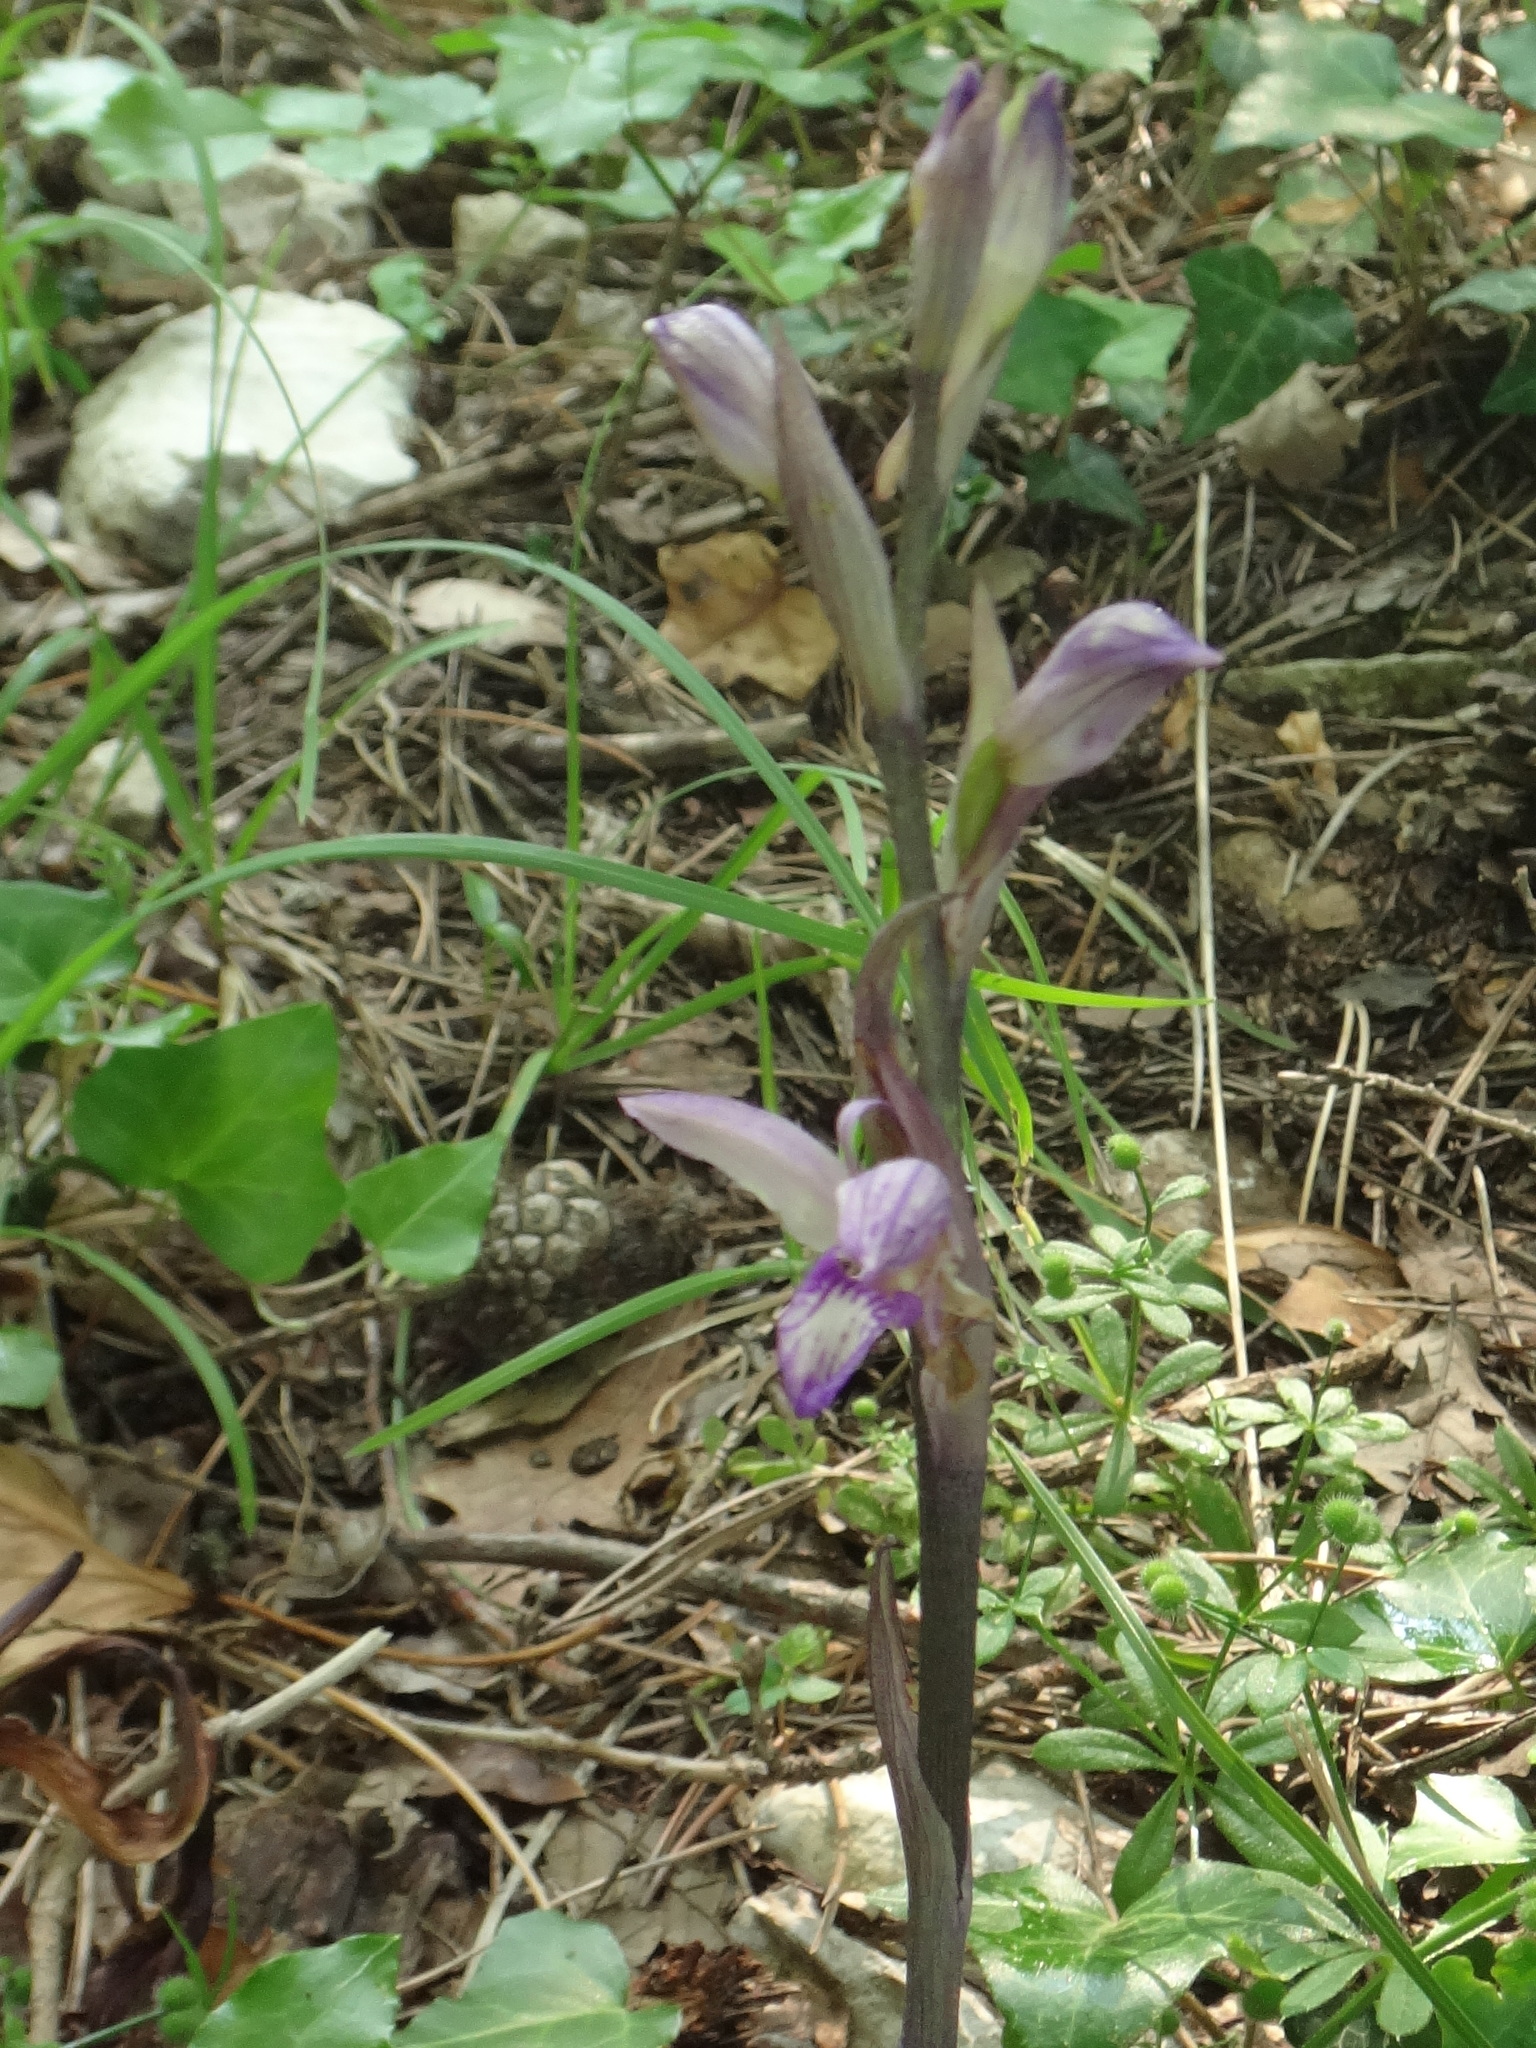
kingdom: Plantae
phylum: Tracheophyta
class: Liliopsida
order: Asparagales
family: Orchidaceae
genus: Limodorum
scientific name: Limodorum abortivum
